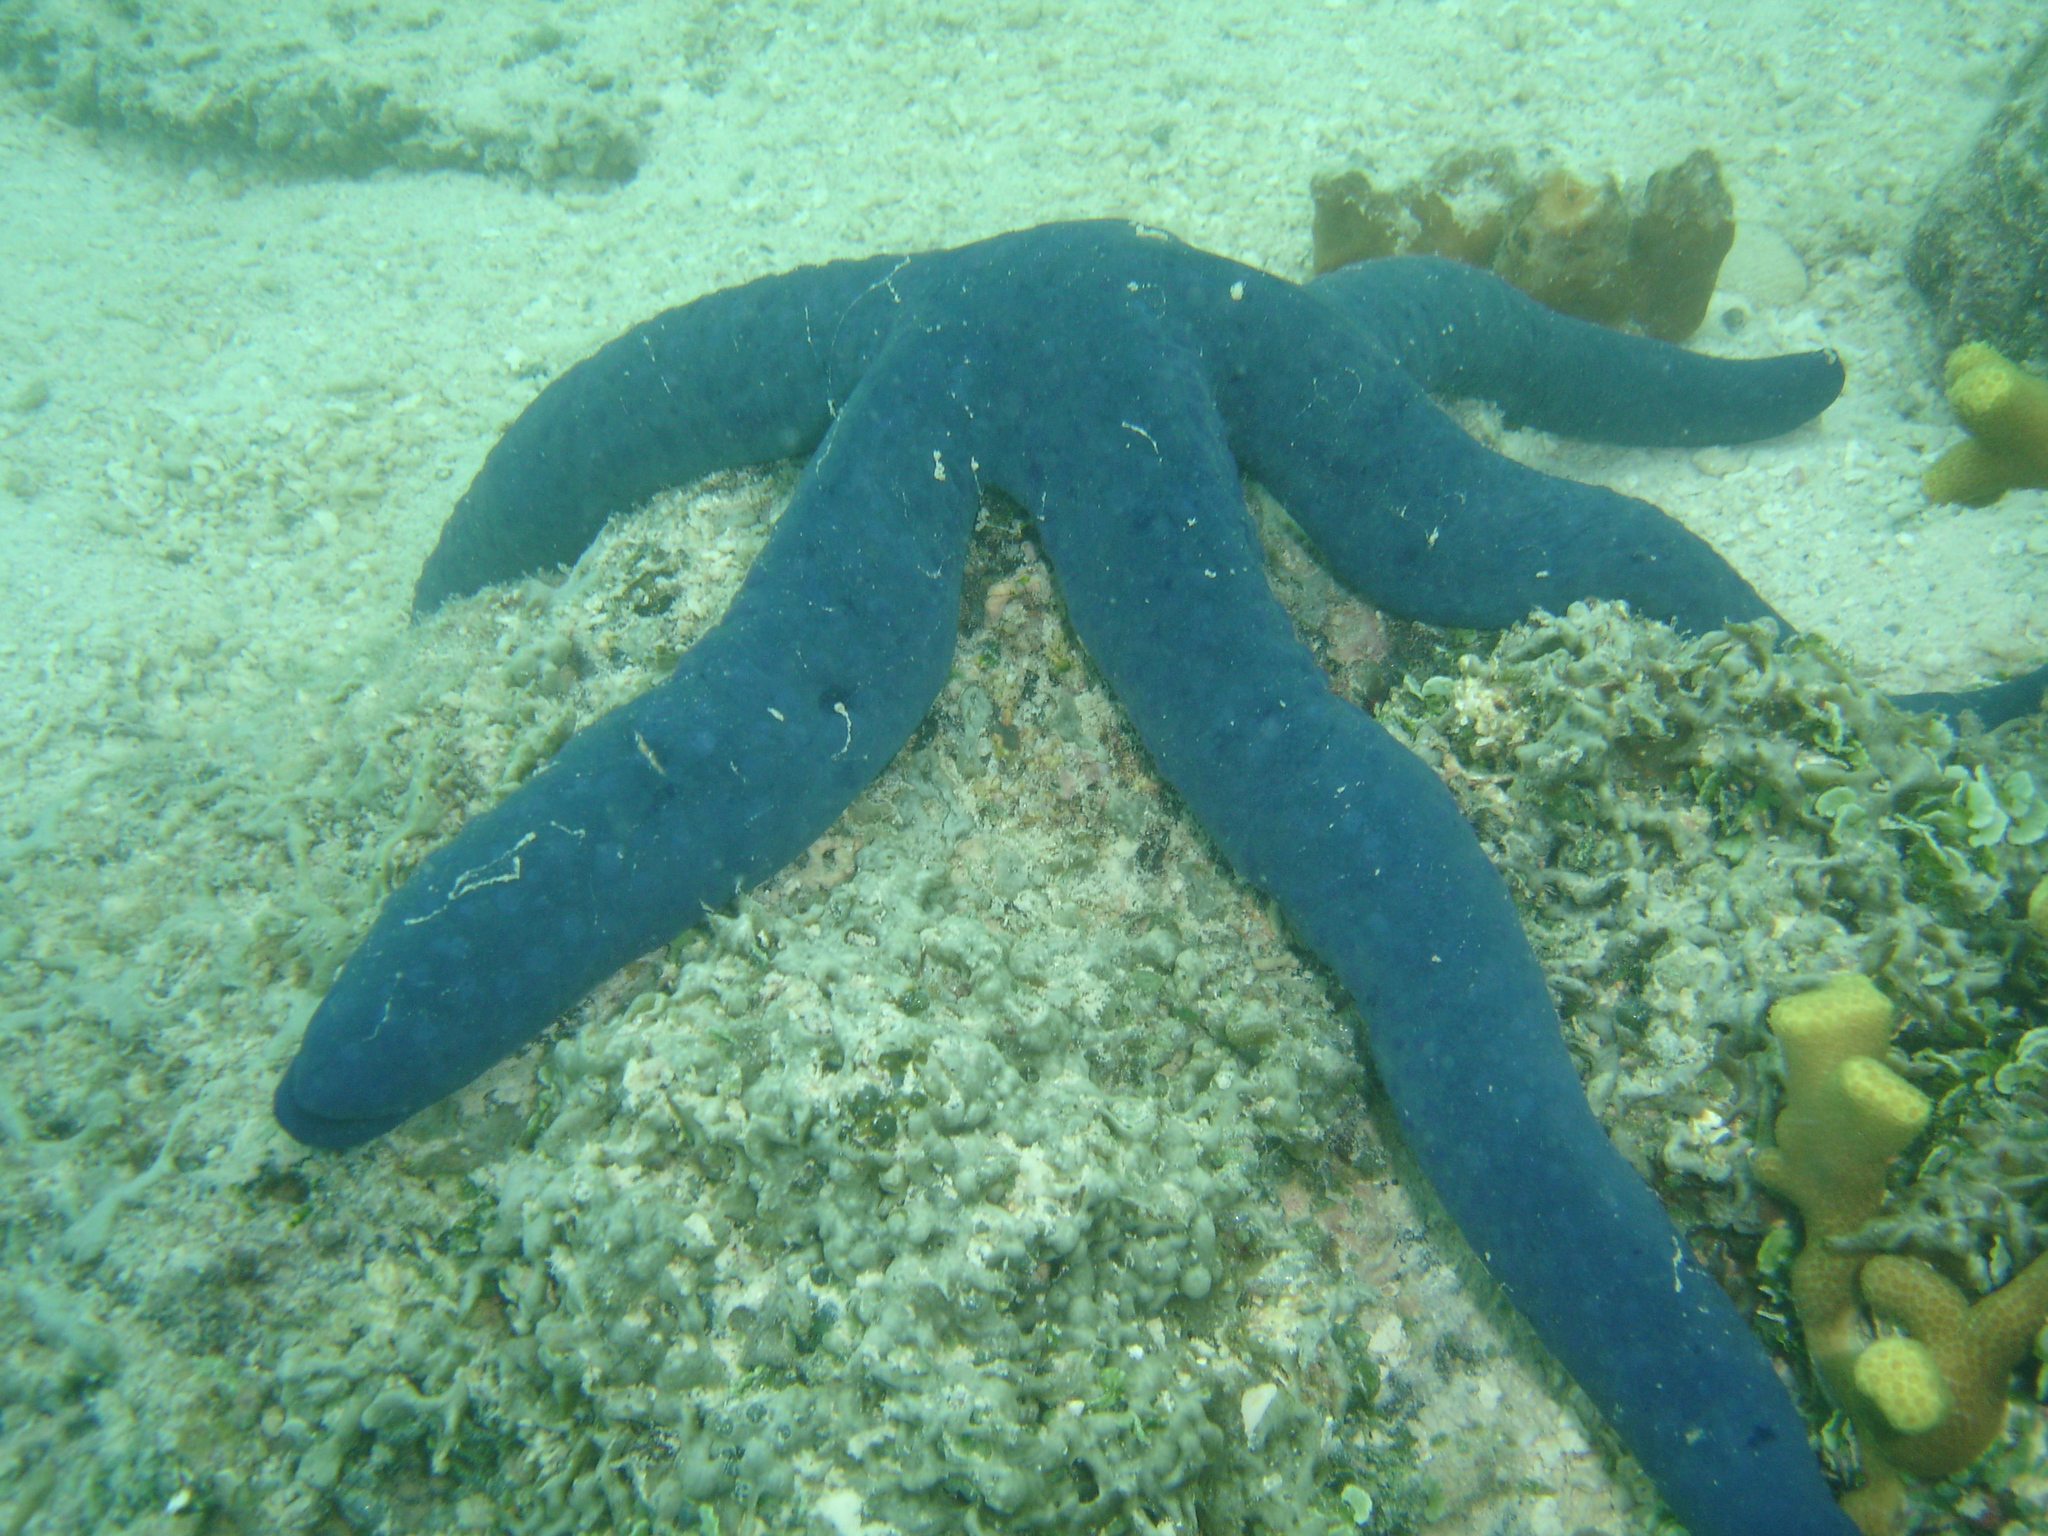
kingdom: Animalia
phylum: Echinodermata
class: Asteroidea
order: Valvatida
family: Ophidiasteridae
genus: Linckia
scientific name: Linckia laevigata
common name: Azure sea star
